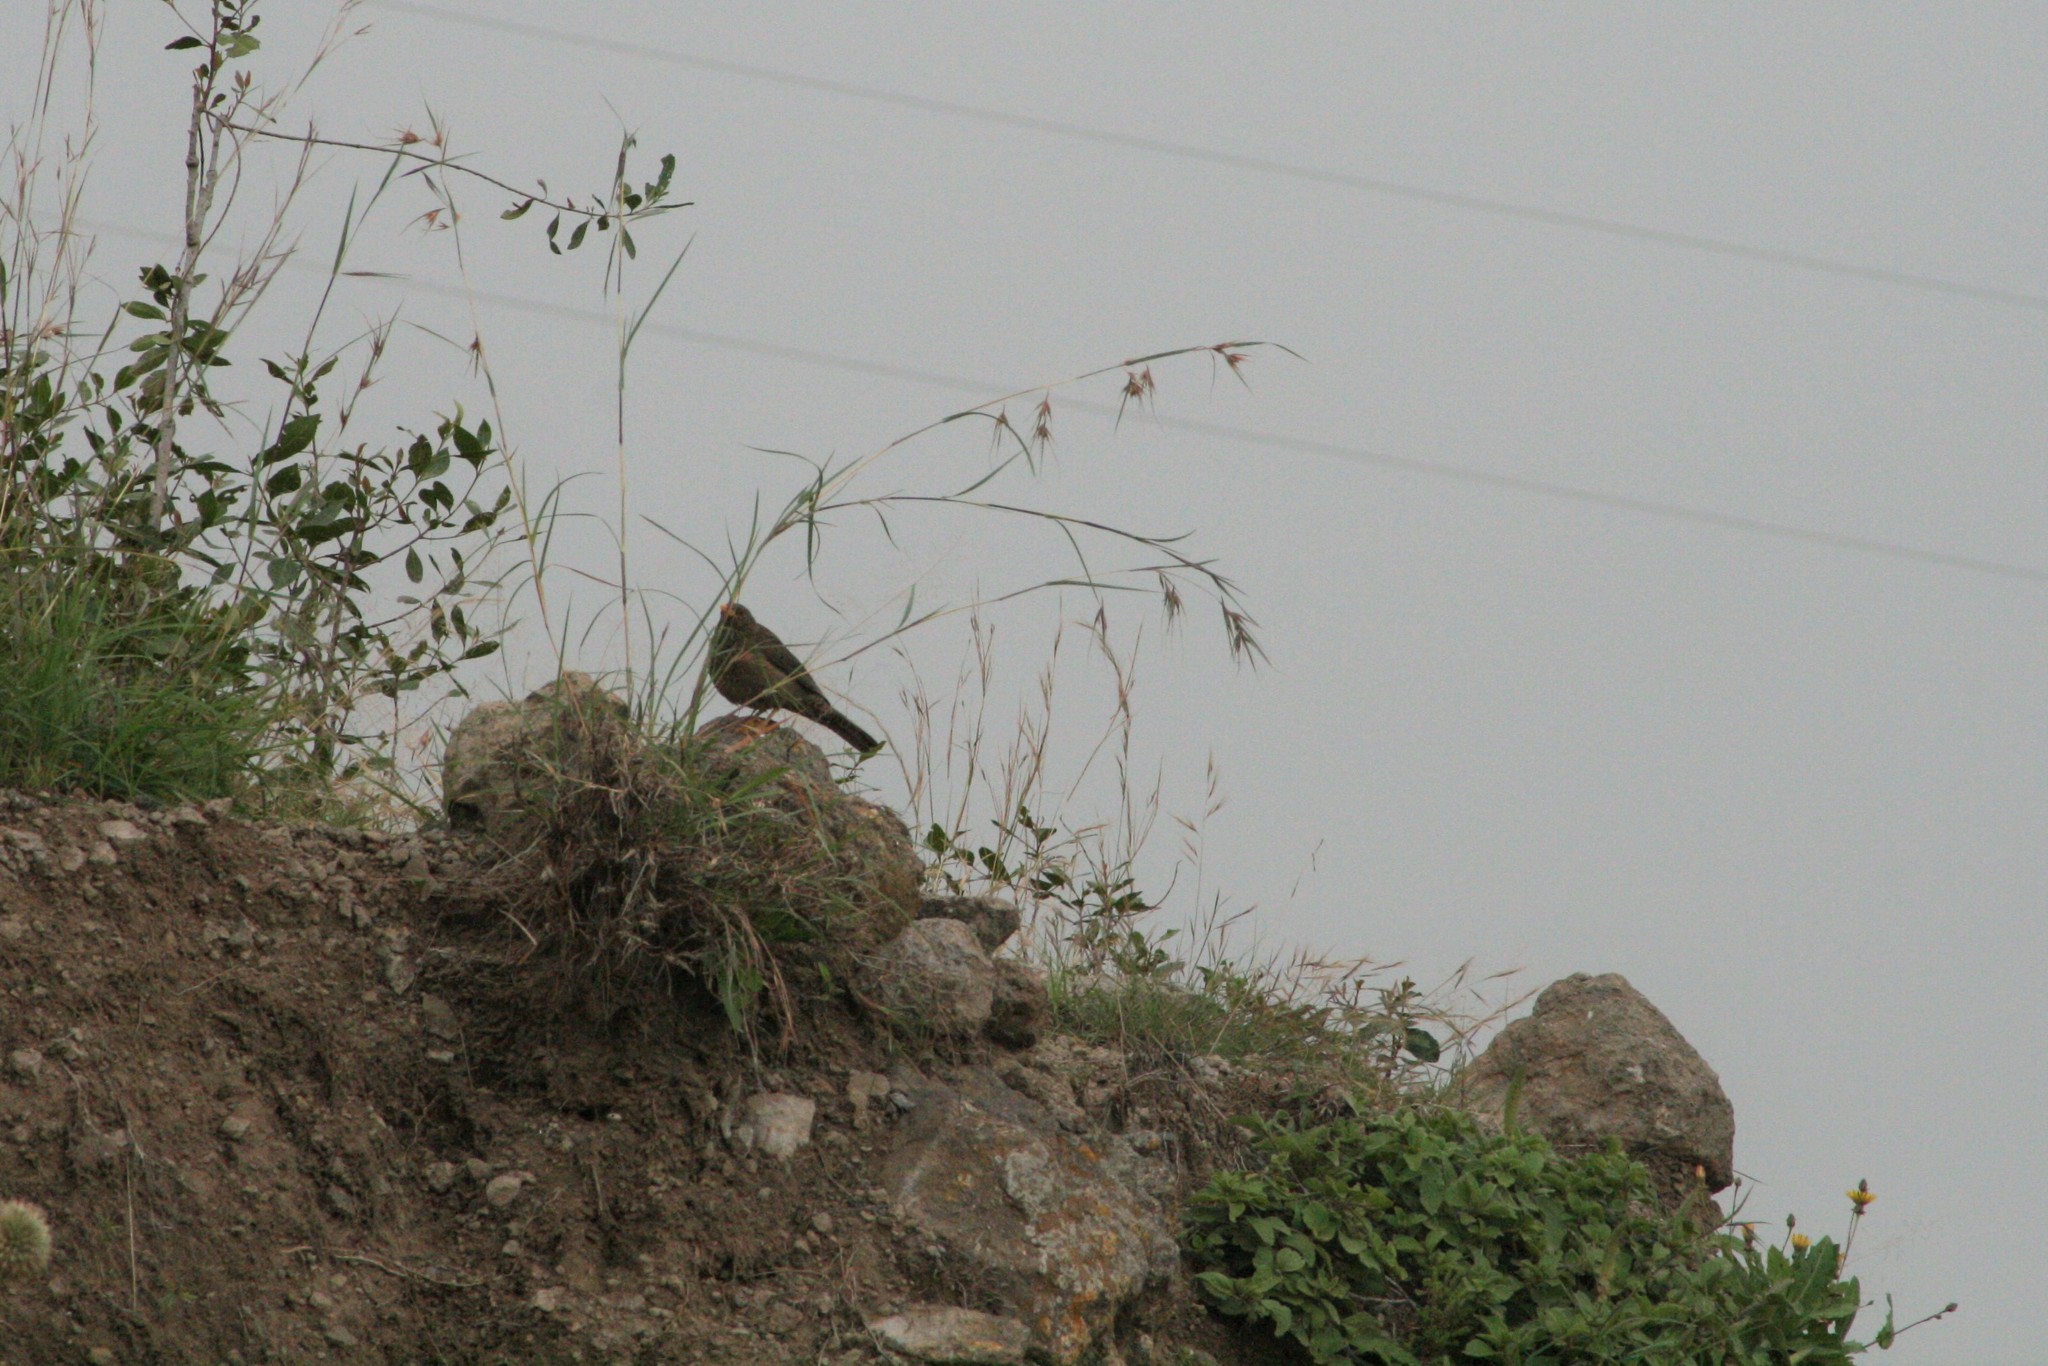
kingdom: Animalia
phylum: Chordata
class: Aves
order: Passeriformes
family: Turdidae
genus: Turdus
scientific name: Turdus menachensis
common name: Yemen thrush
